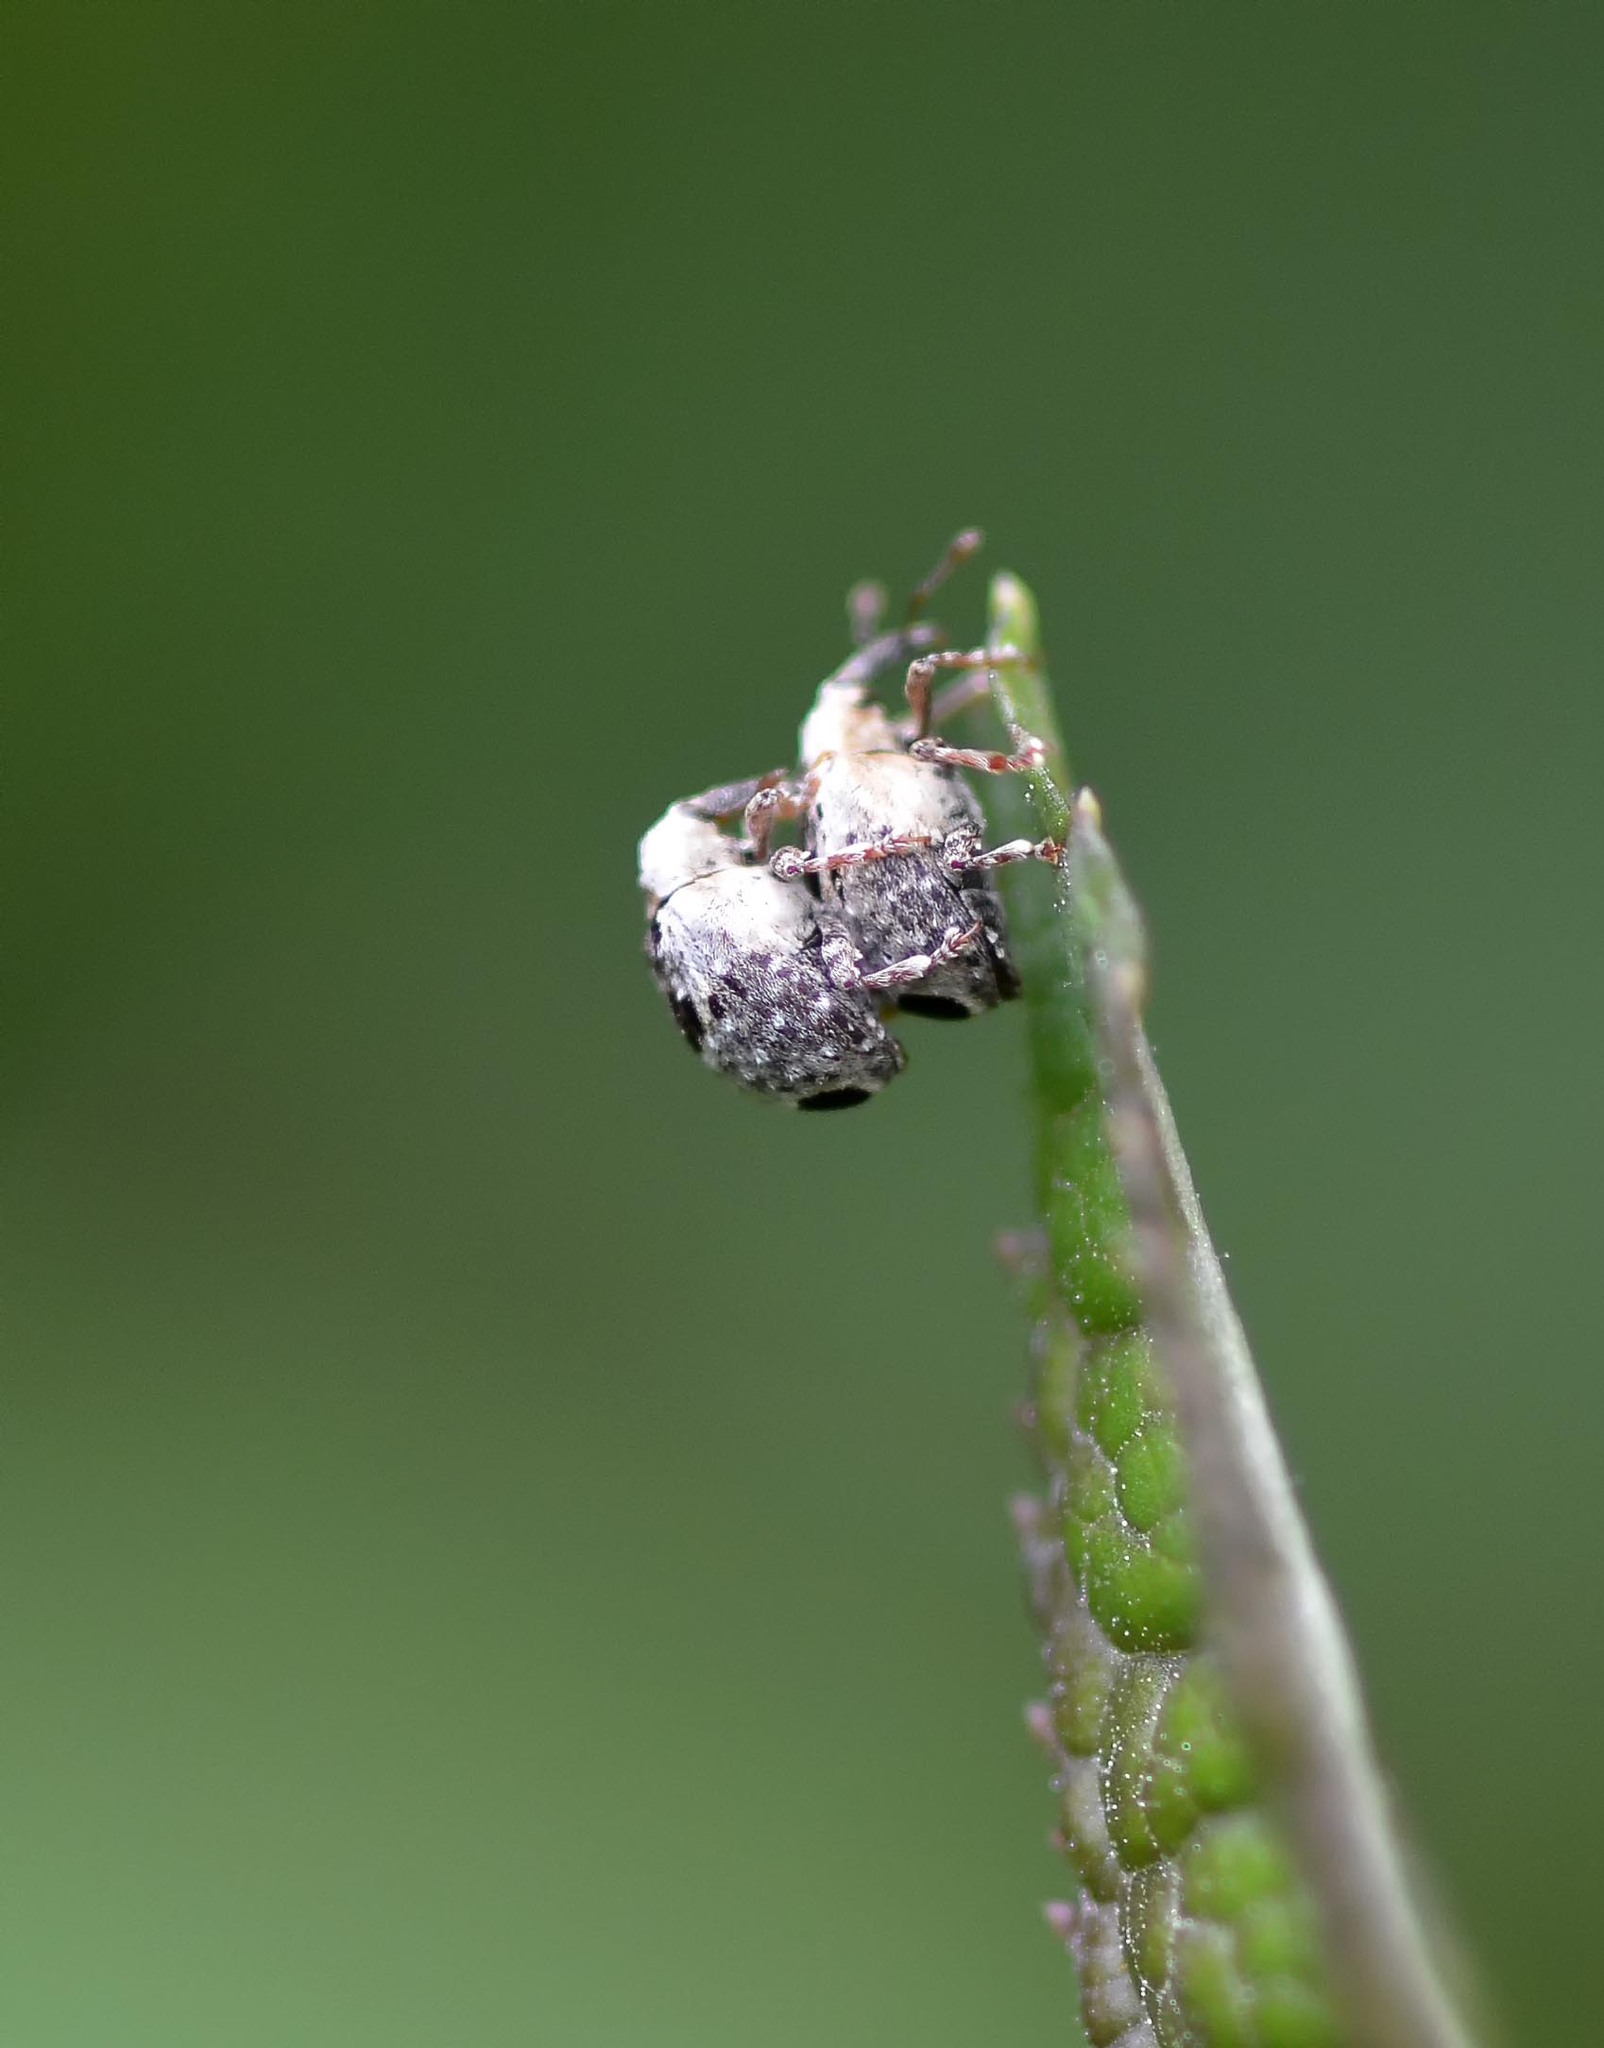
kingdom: Animalia
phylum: Arthropoda
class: Insecta
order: Coleoptera
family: Curculionidae
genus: Cionus
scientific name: Cionus alauda
